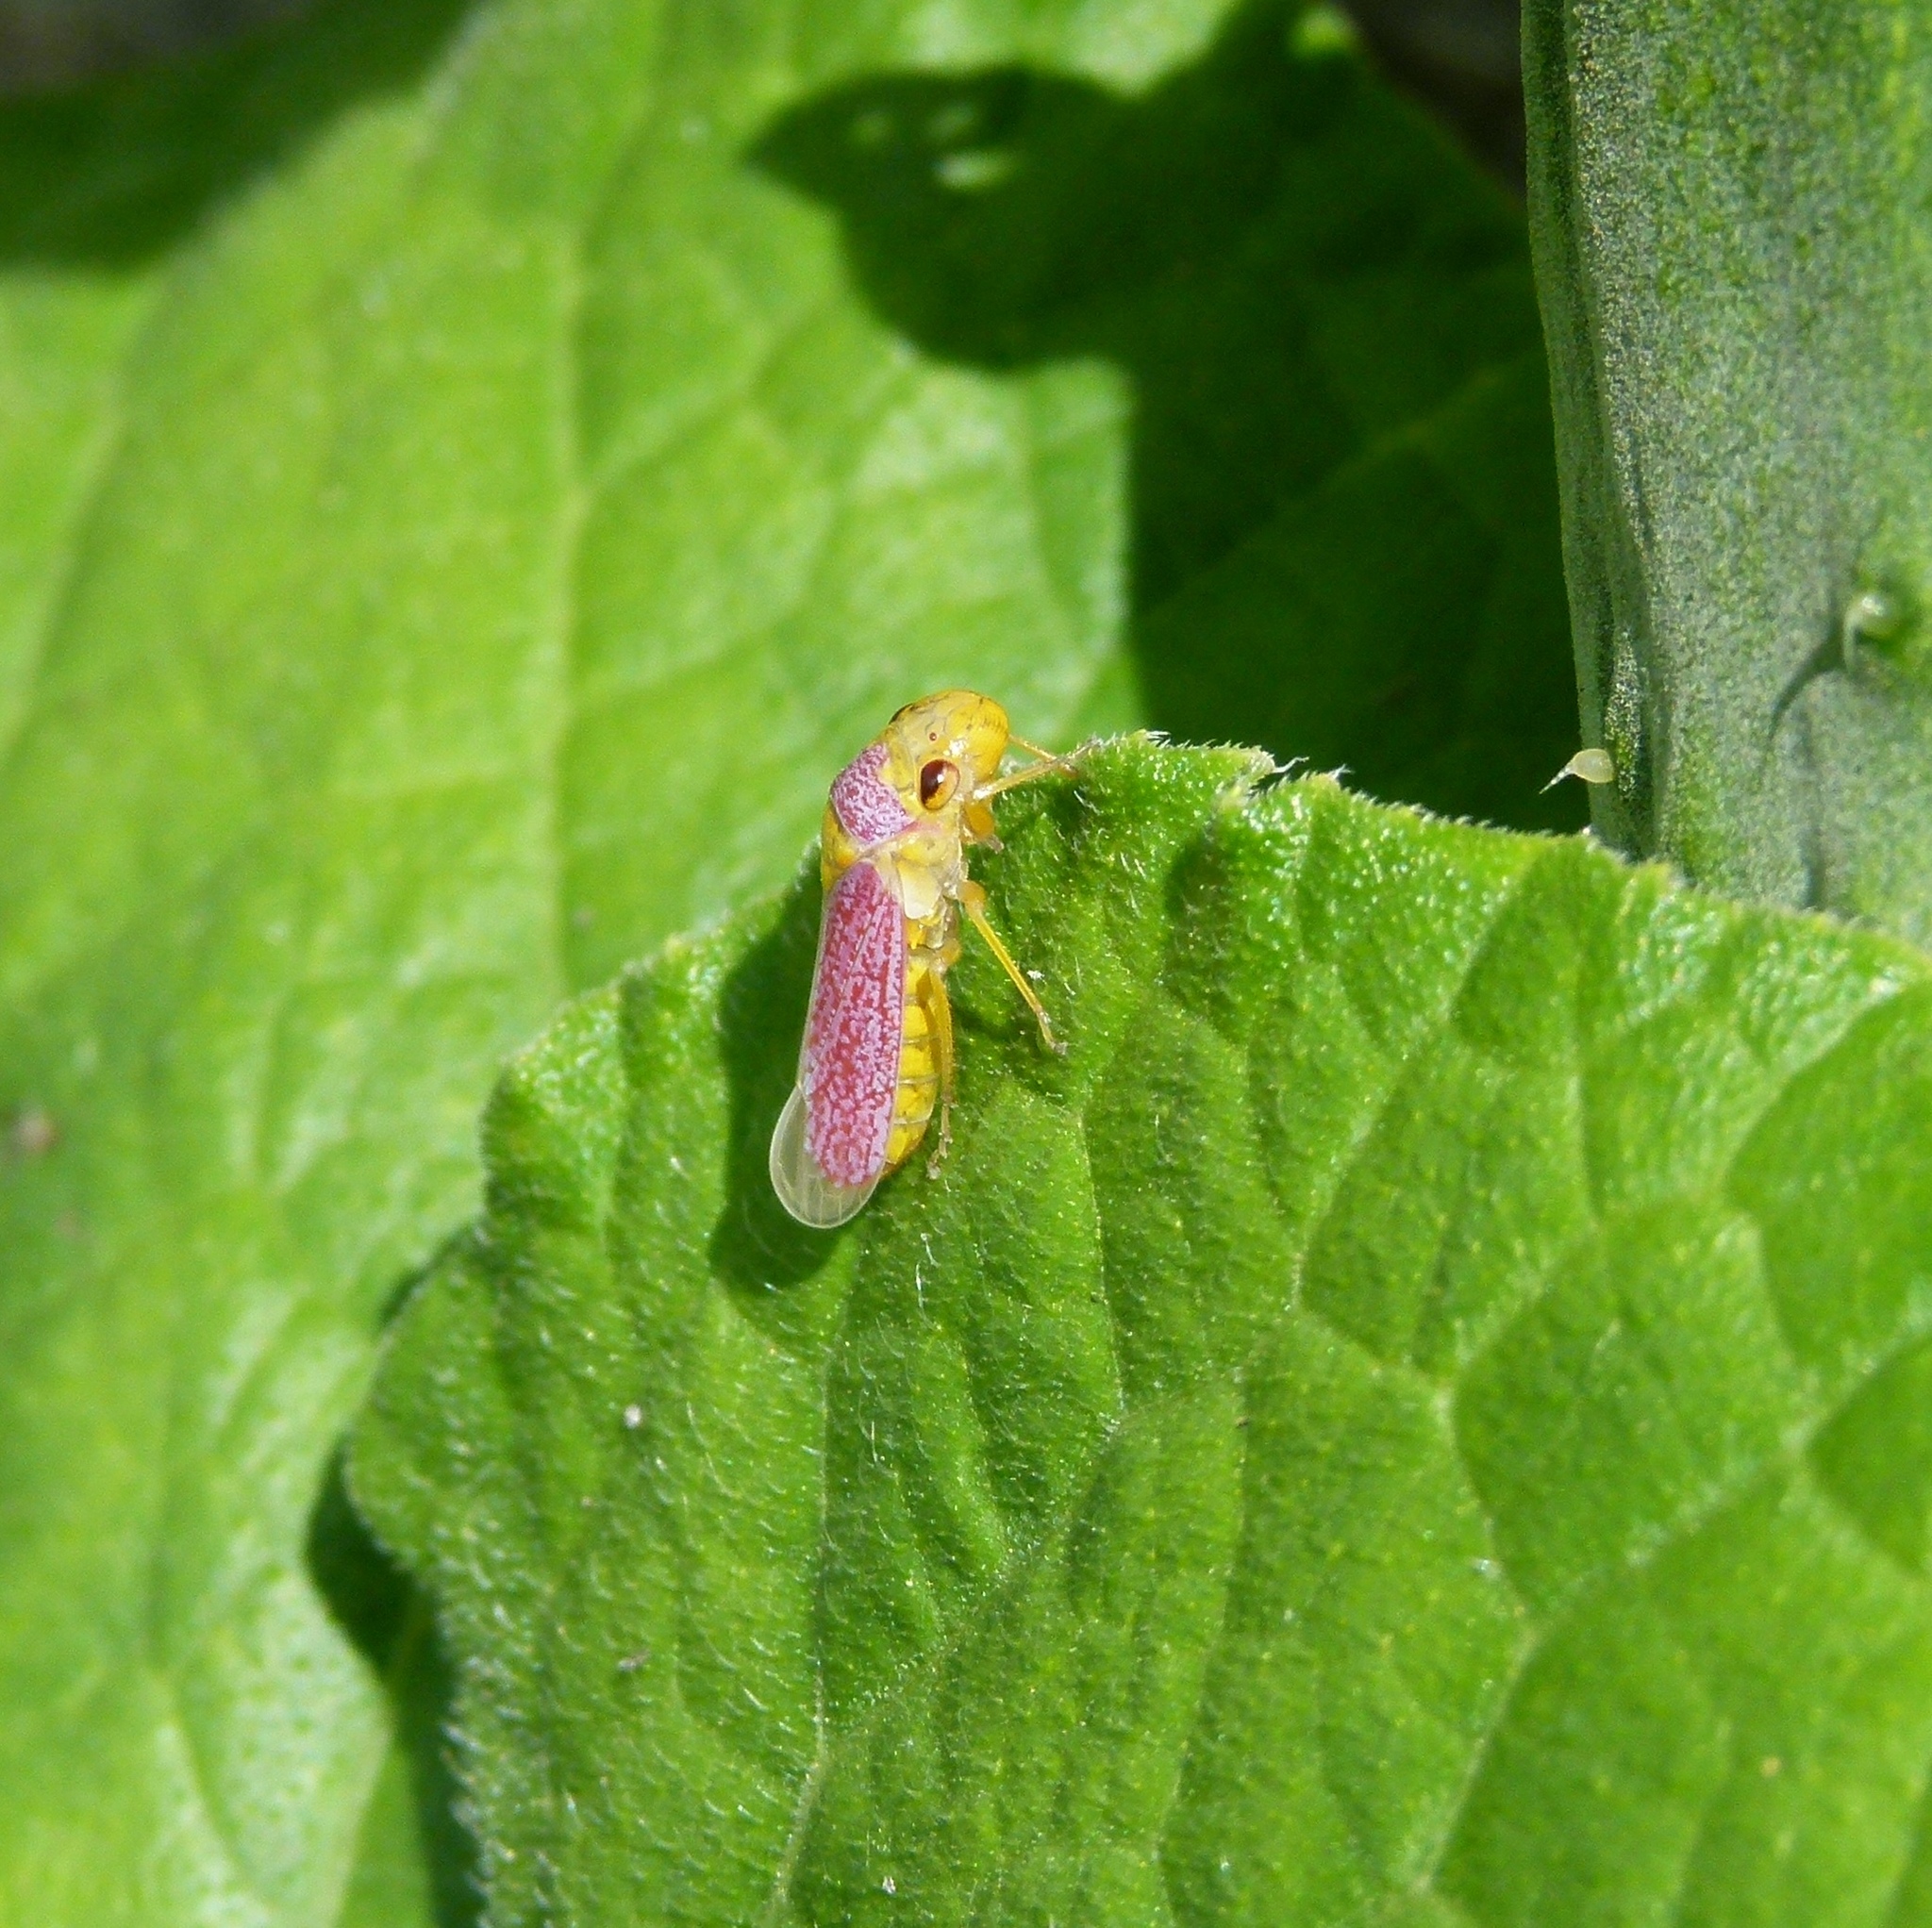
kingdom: Animalia
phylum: Arthropoda
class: Insecta
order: Hemiptera
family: Cicadellidae
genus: Oncometopia
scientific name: Oncometopia orbona
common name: Broad-headed sharpshooter
